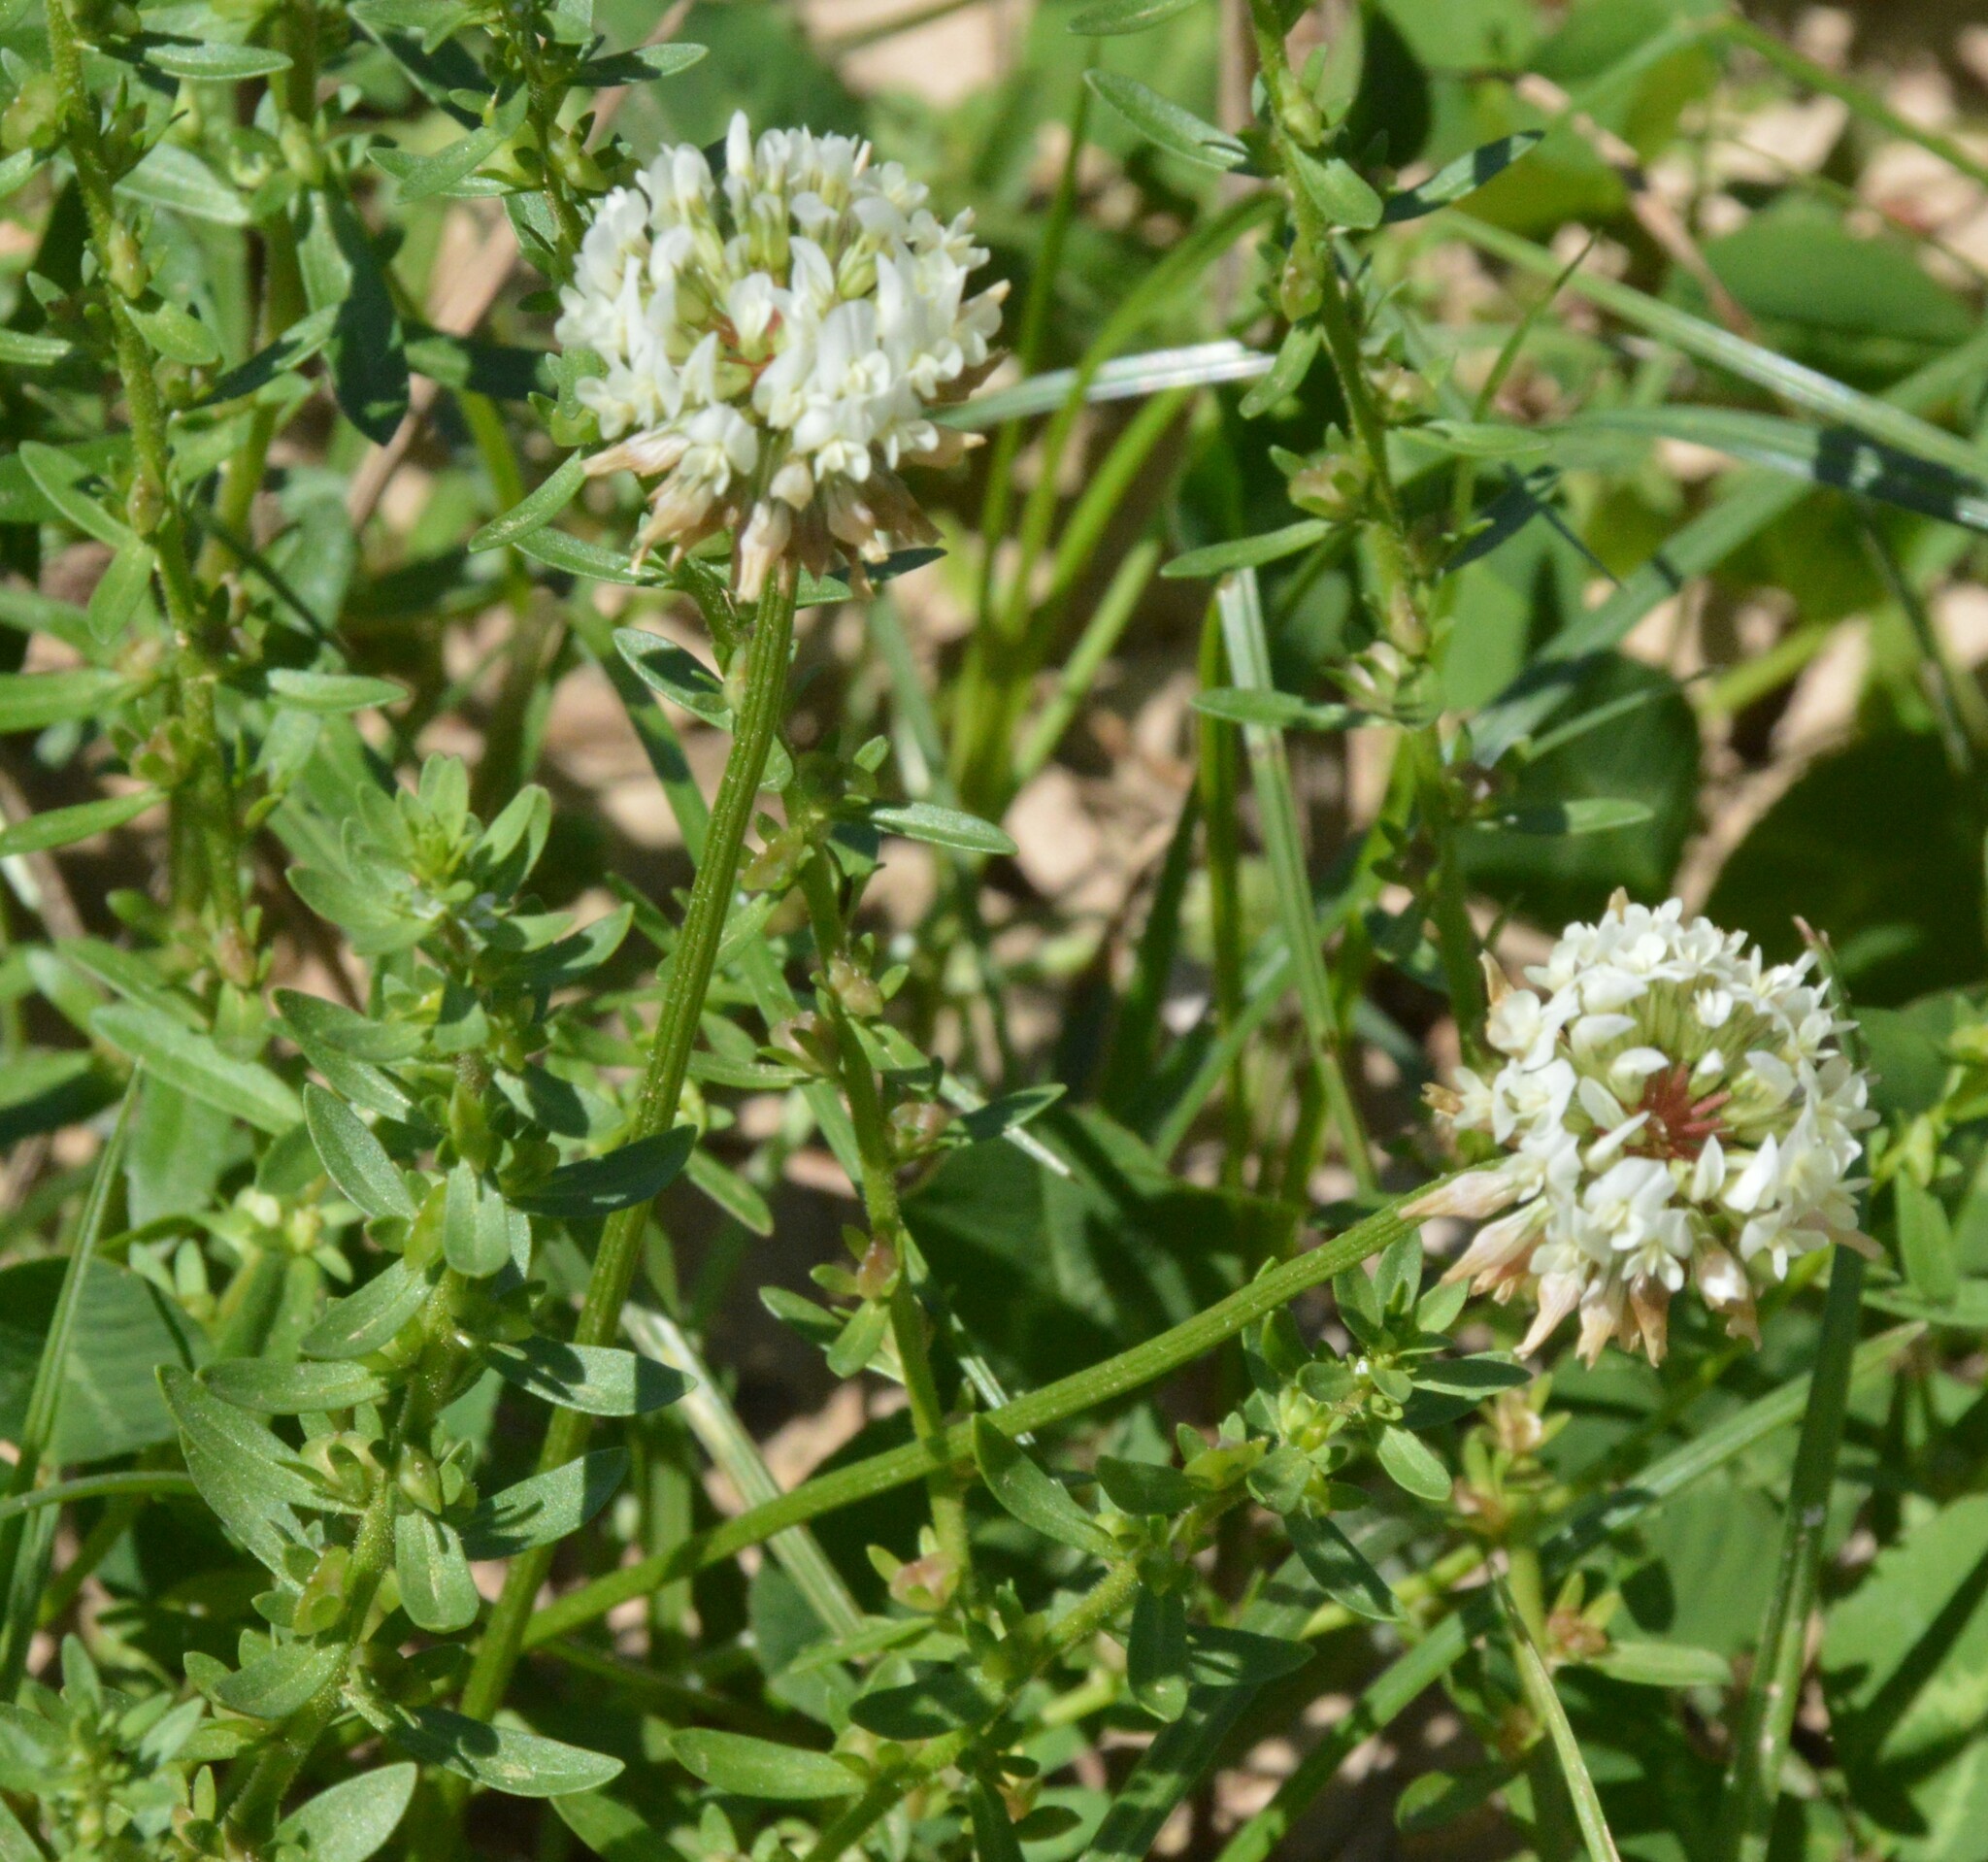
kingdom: Plantae
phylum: Tracheophyta
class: Magnoliopsida
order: Fabales
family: Fabaceae
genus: Trifolium
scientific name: Trifolium repens
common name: White clover
